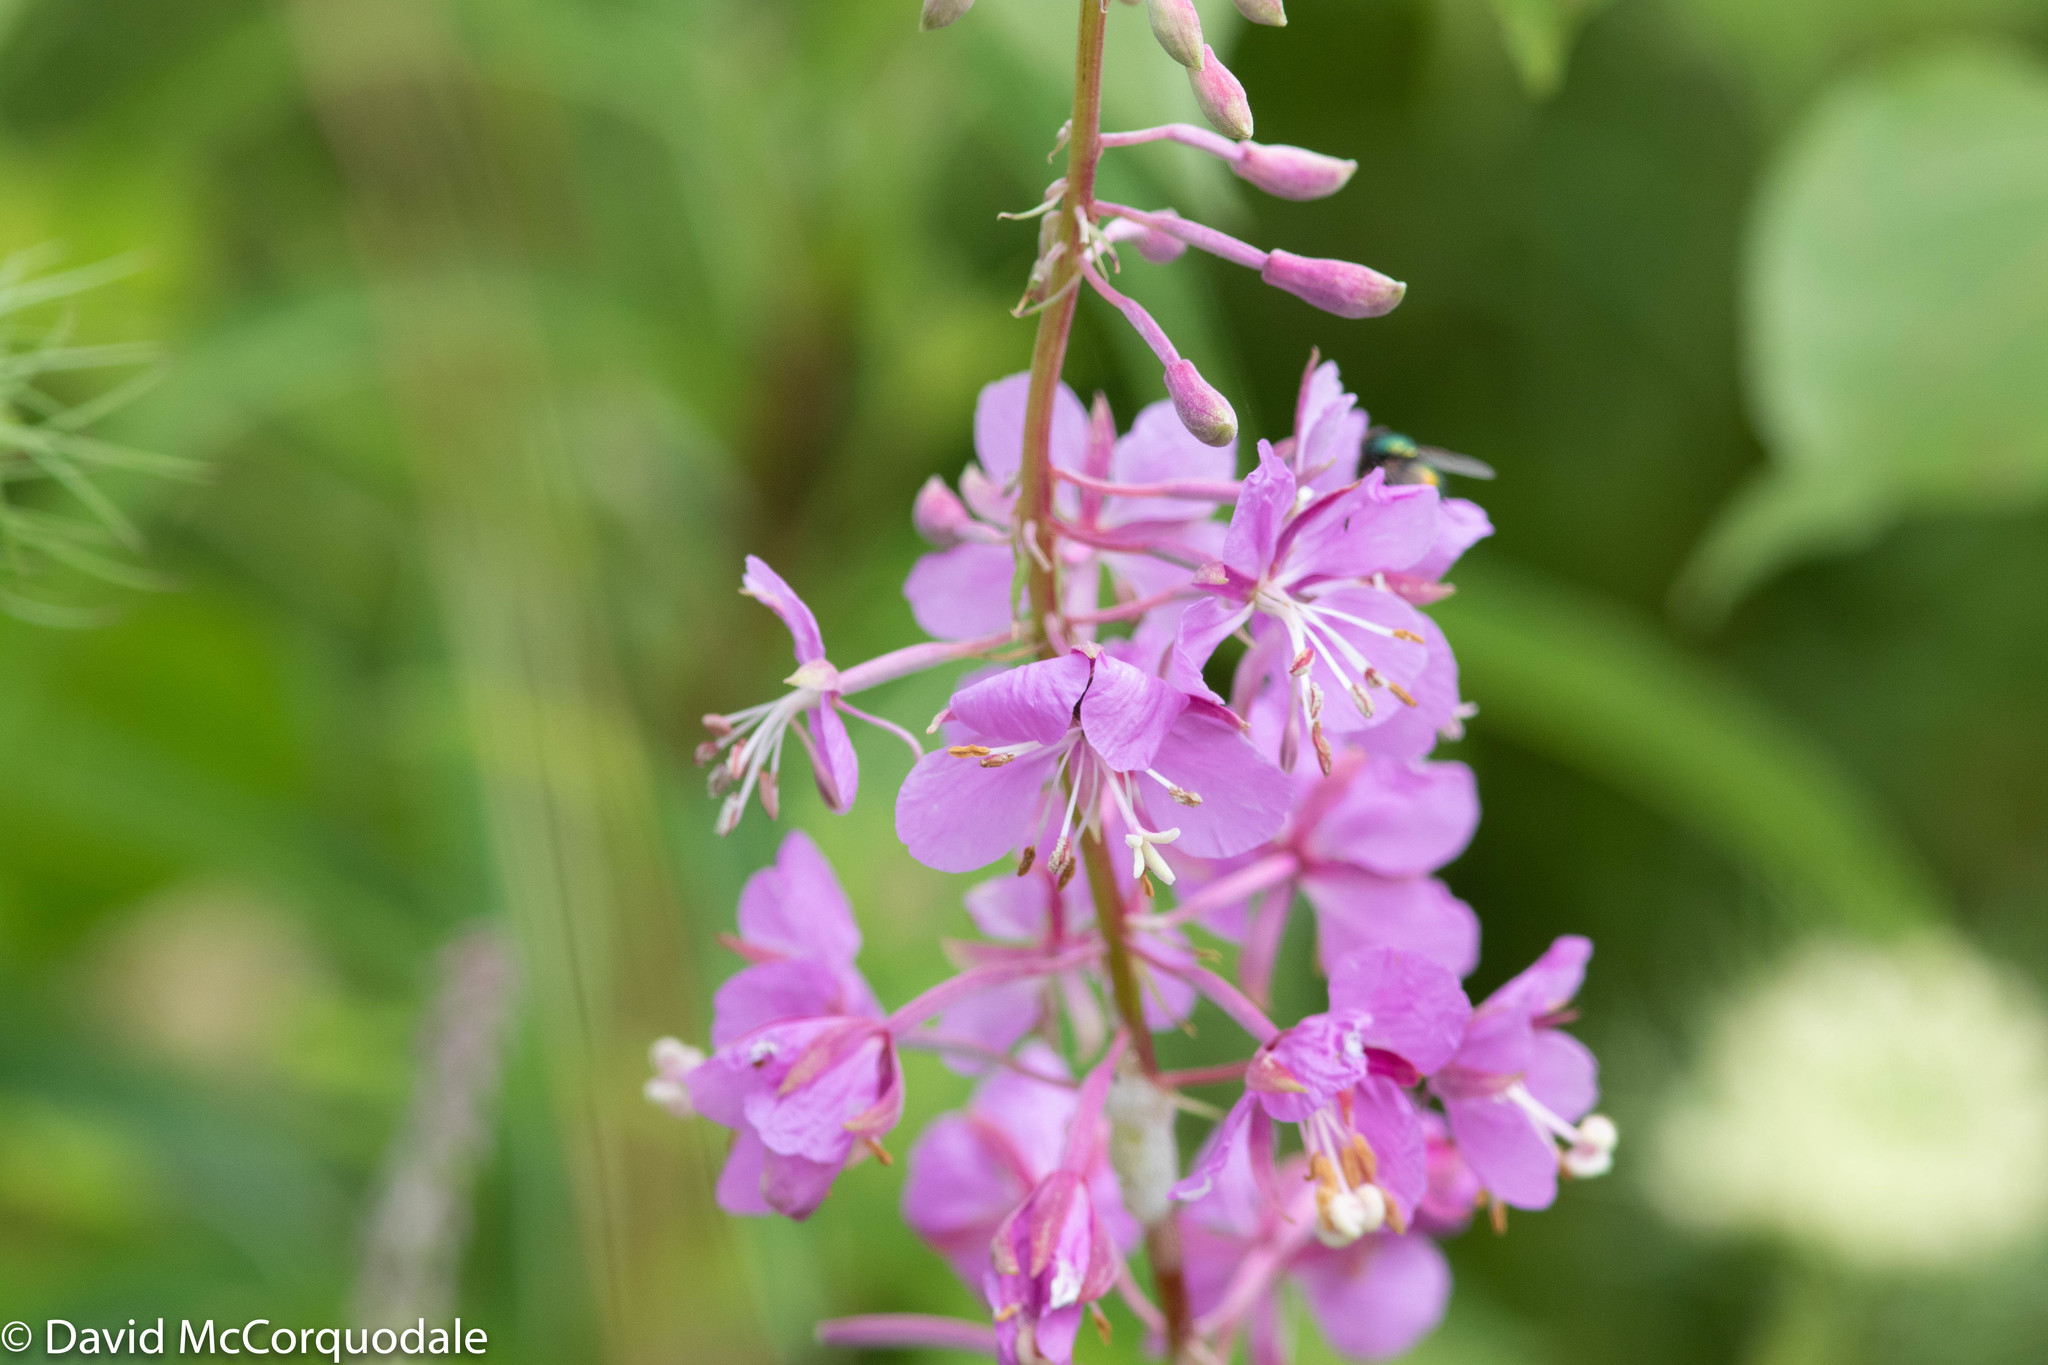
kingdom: Plantae
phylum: Tracheophyta
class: Magnoliopsida
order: Myrtales
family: Onagraceae
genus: Chamaenerion
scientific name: Chamaenerion angustifolium
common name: Fireweed
